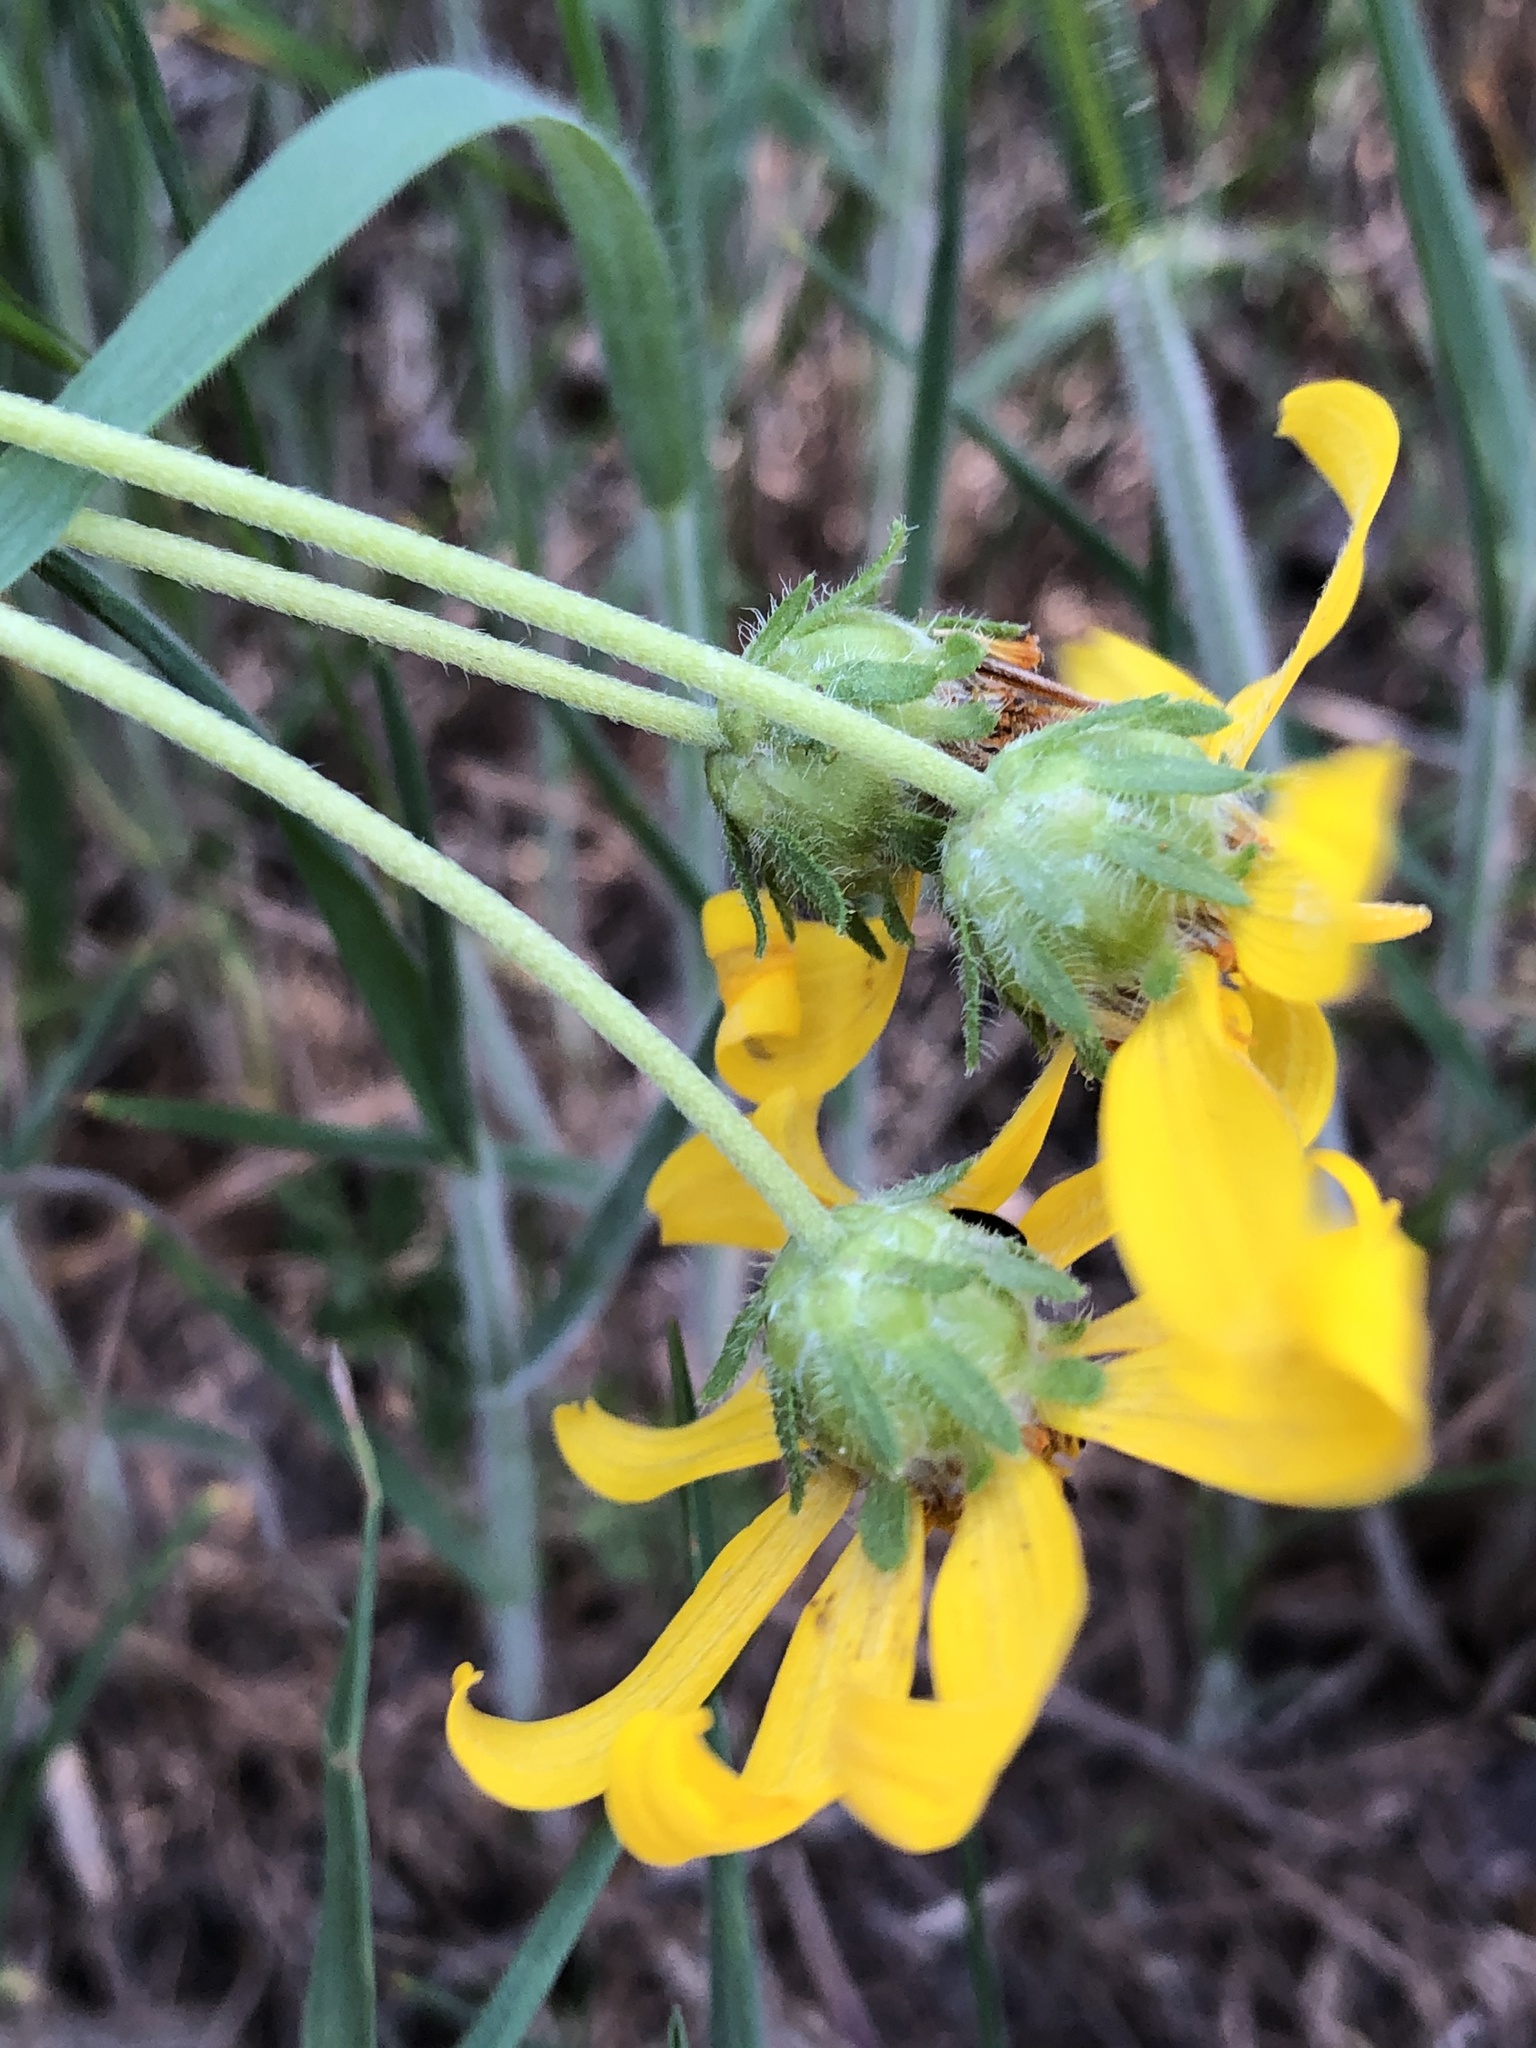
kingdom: Plantae
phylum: Tracheophyta
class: Magnoliopsida
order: Asterales
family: Asteraceae
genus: Engelmannia
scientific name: Engelmannia peristenia
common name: Engelmann's daisy
